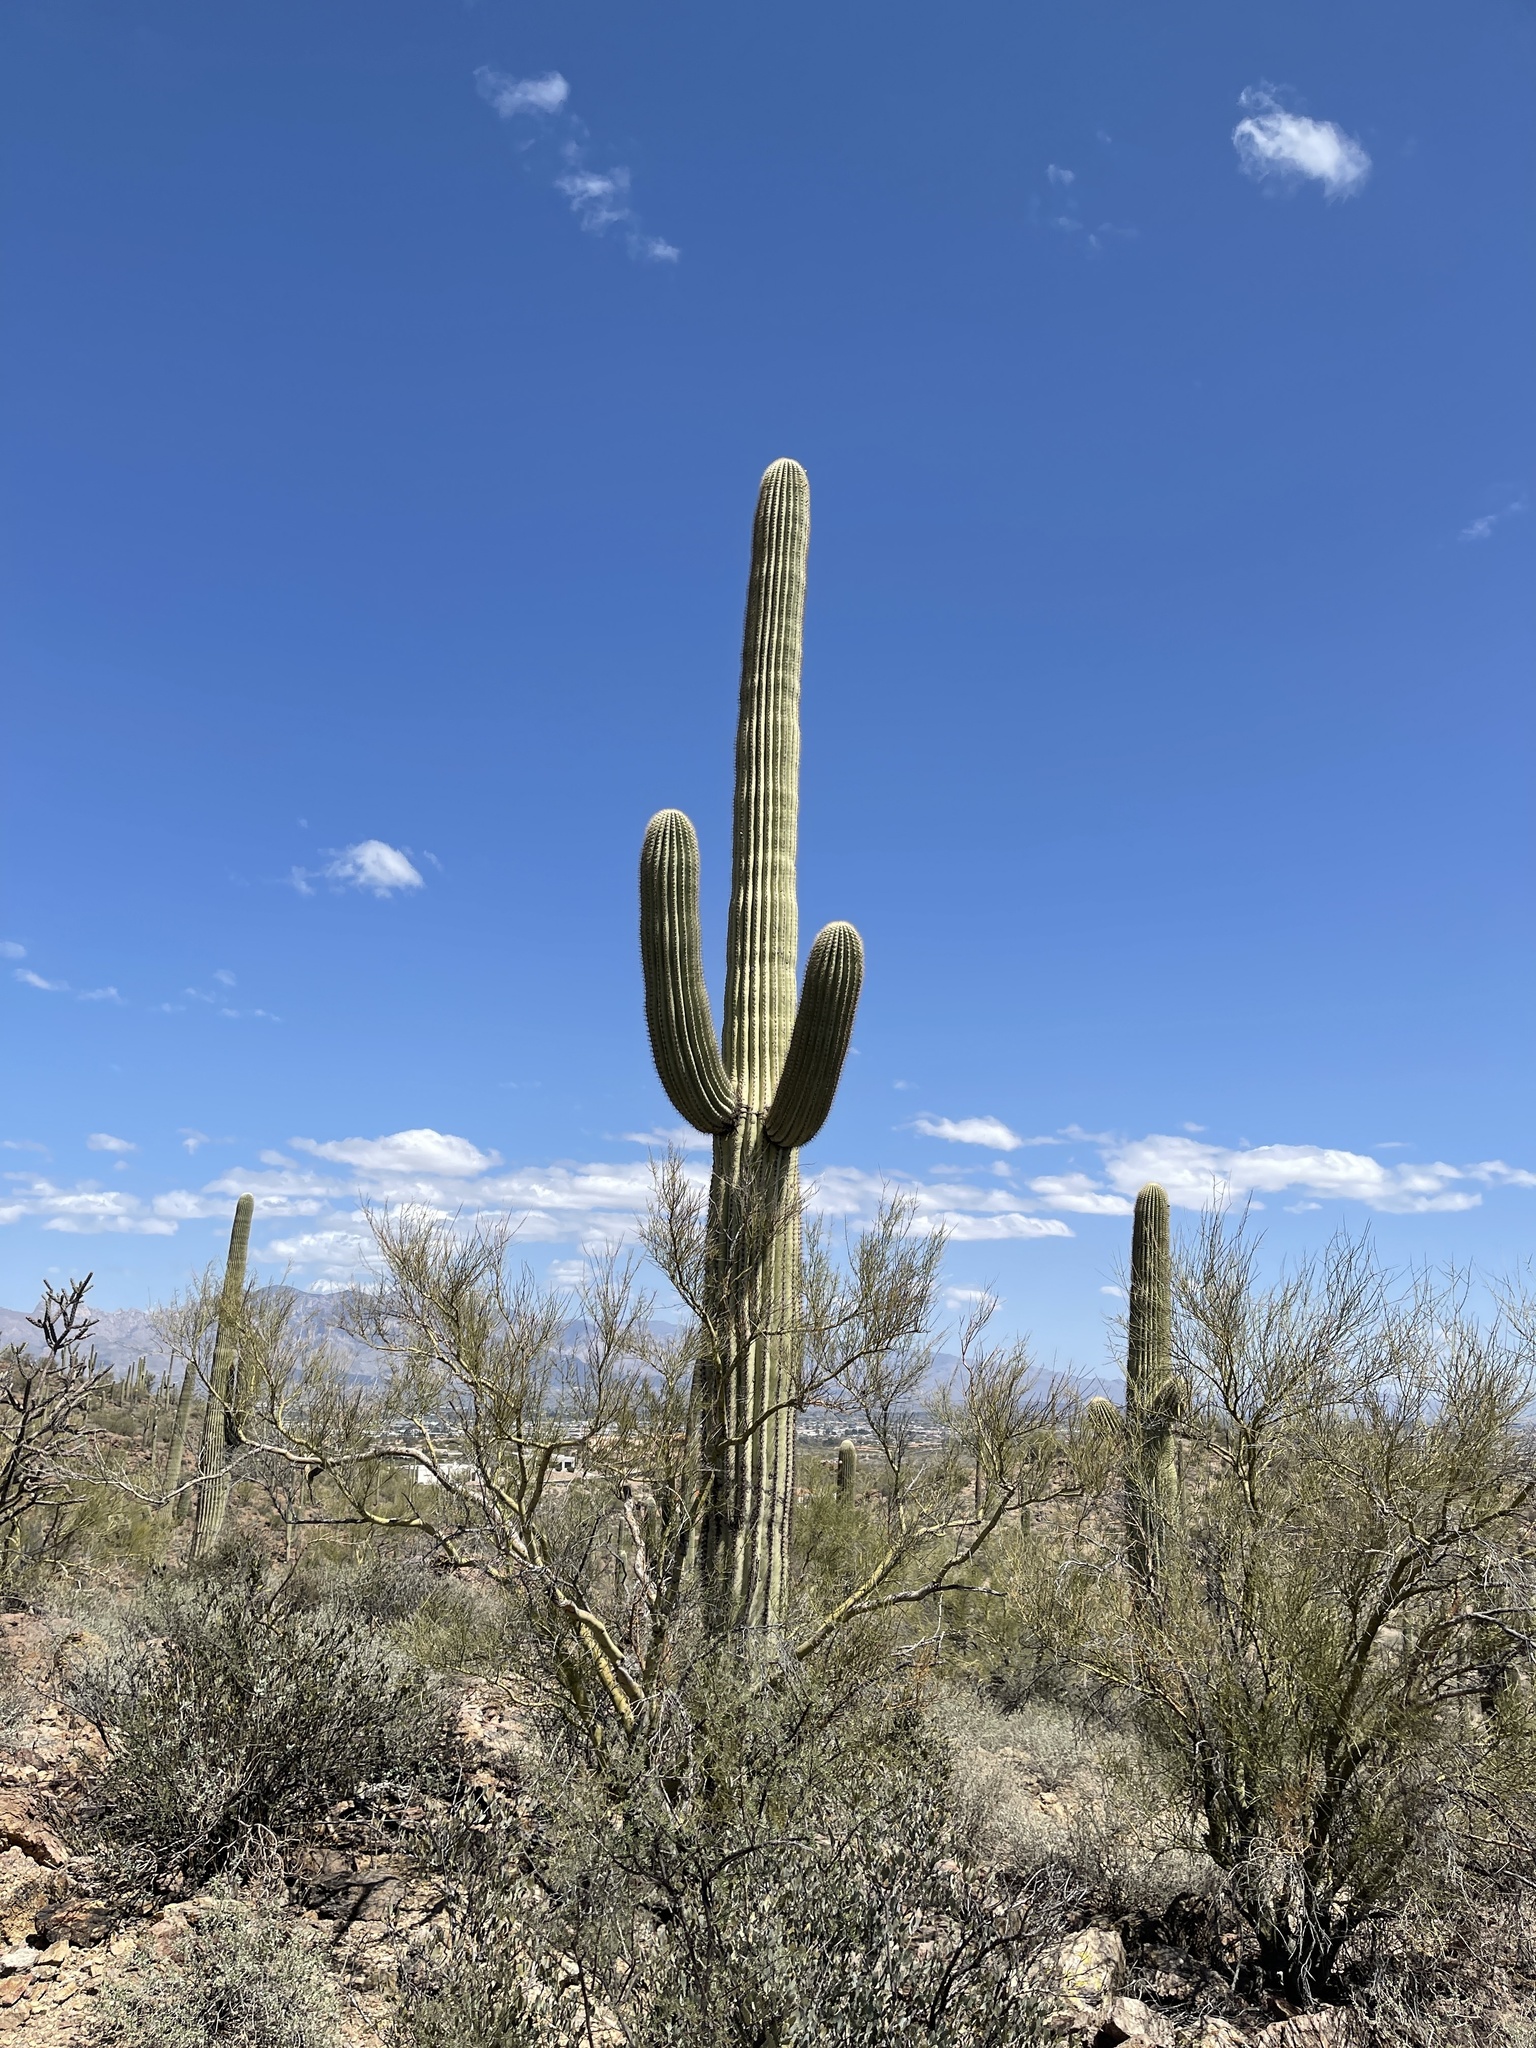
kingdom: Plantae
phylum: Tracheophyta
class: Magnoliopsida
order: Caryophyllales
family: Cactaceae
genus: Carnegiea
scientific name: Carnegiea gigantea
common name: Saguaro
